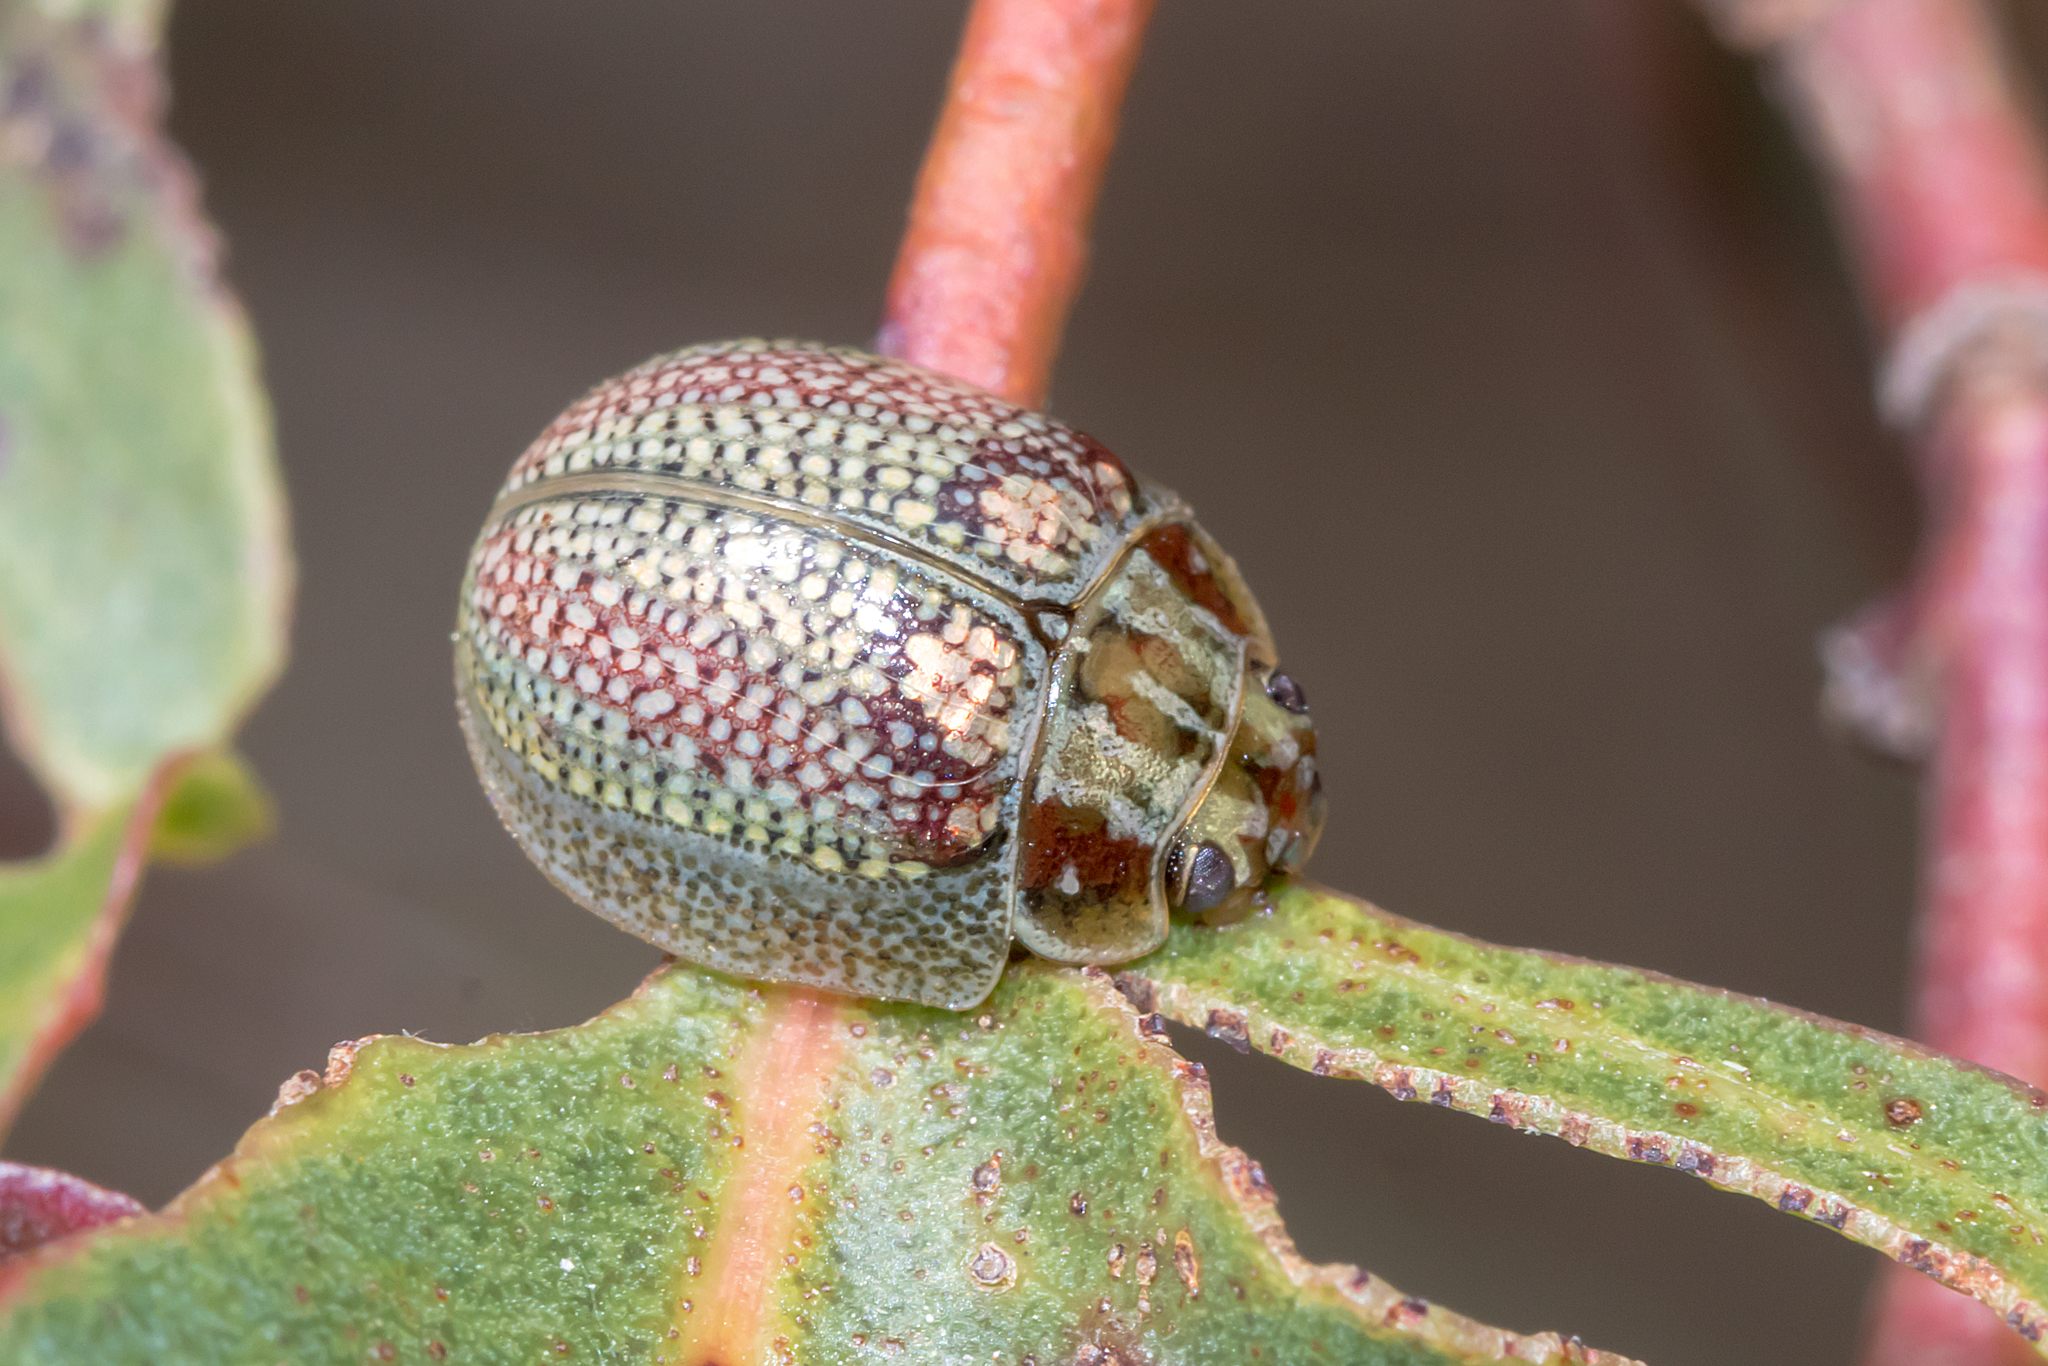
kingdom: Animalia
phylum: Arthropoda
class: Insecta
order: Coleoptera
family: Chrysomelidae
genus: Paropsisterna
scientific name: Paropsisterna
